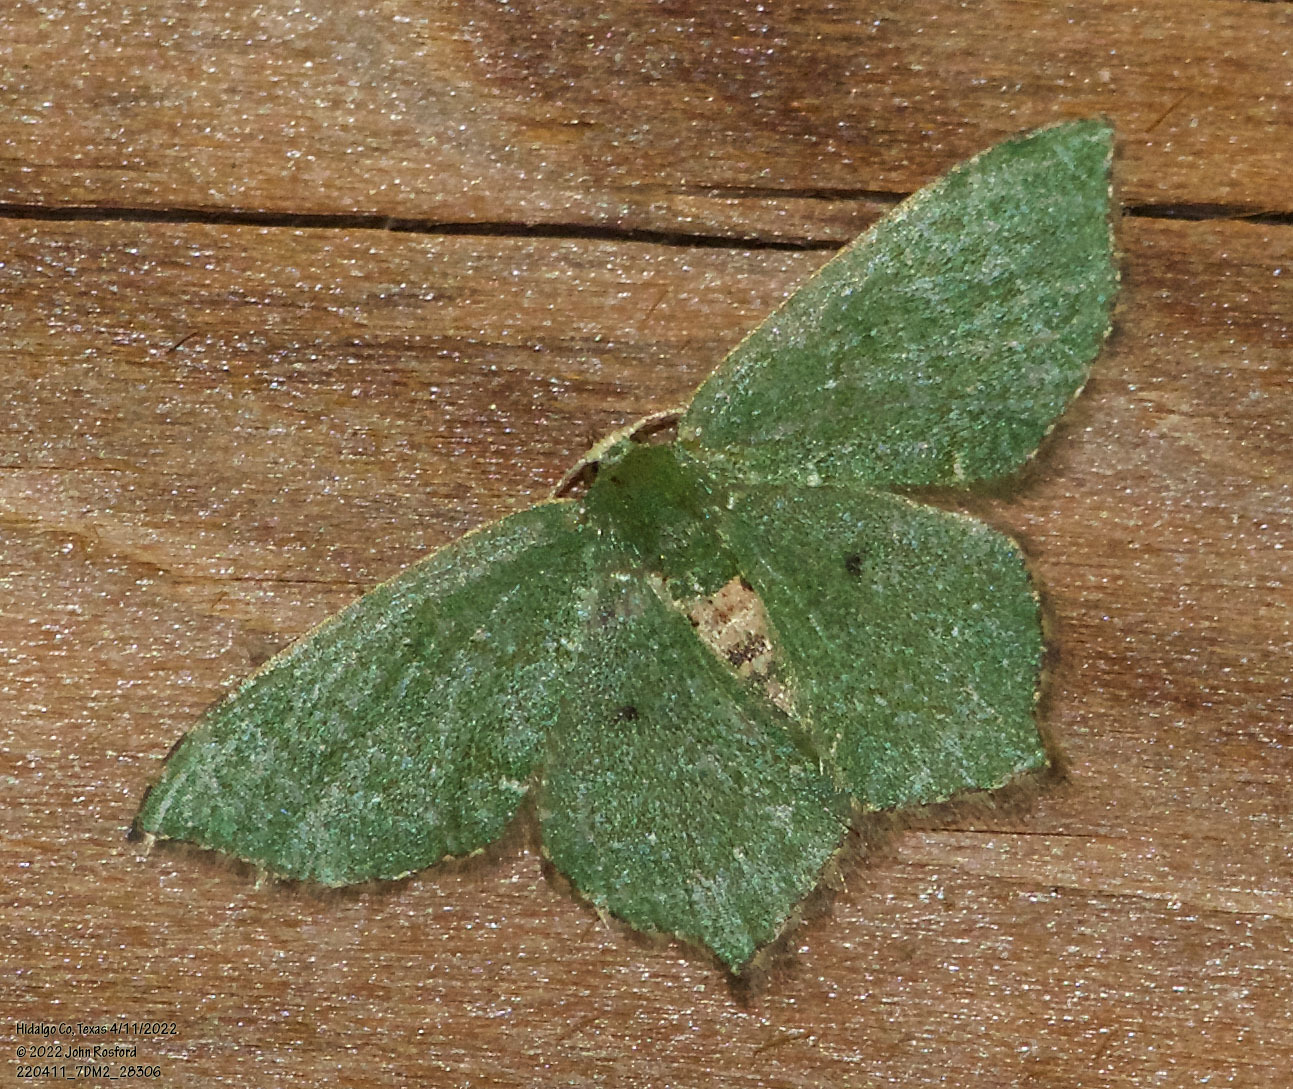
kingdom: Animalia
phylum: Arthropoda
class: Insecta
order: Lepidoptera
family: Geometridae
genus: Chloropteryx
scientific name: Chloropteryx nordicaria
